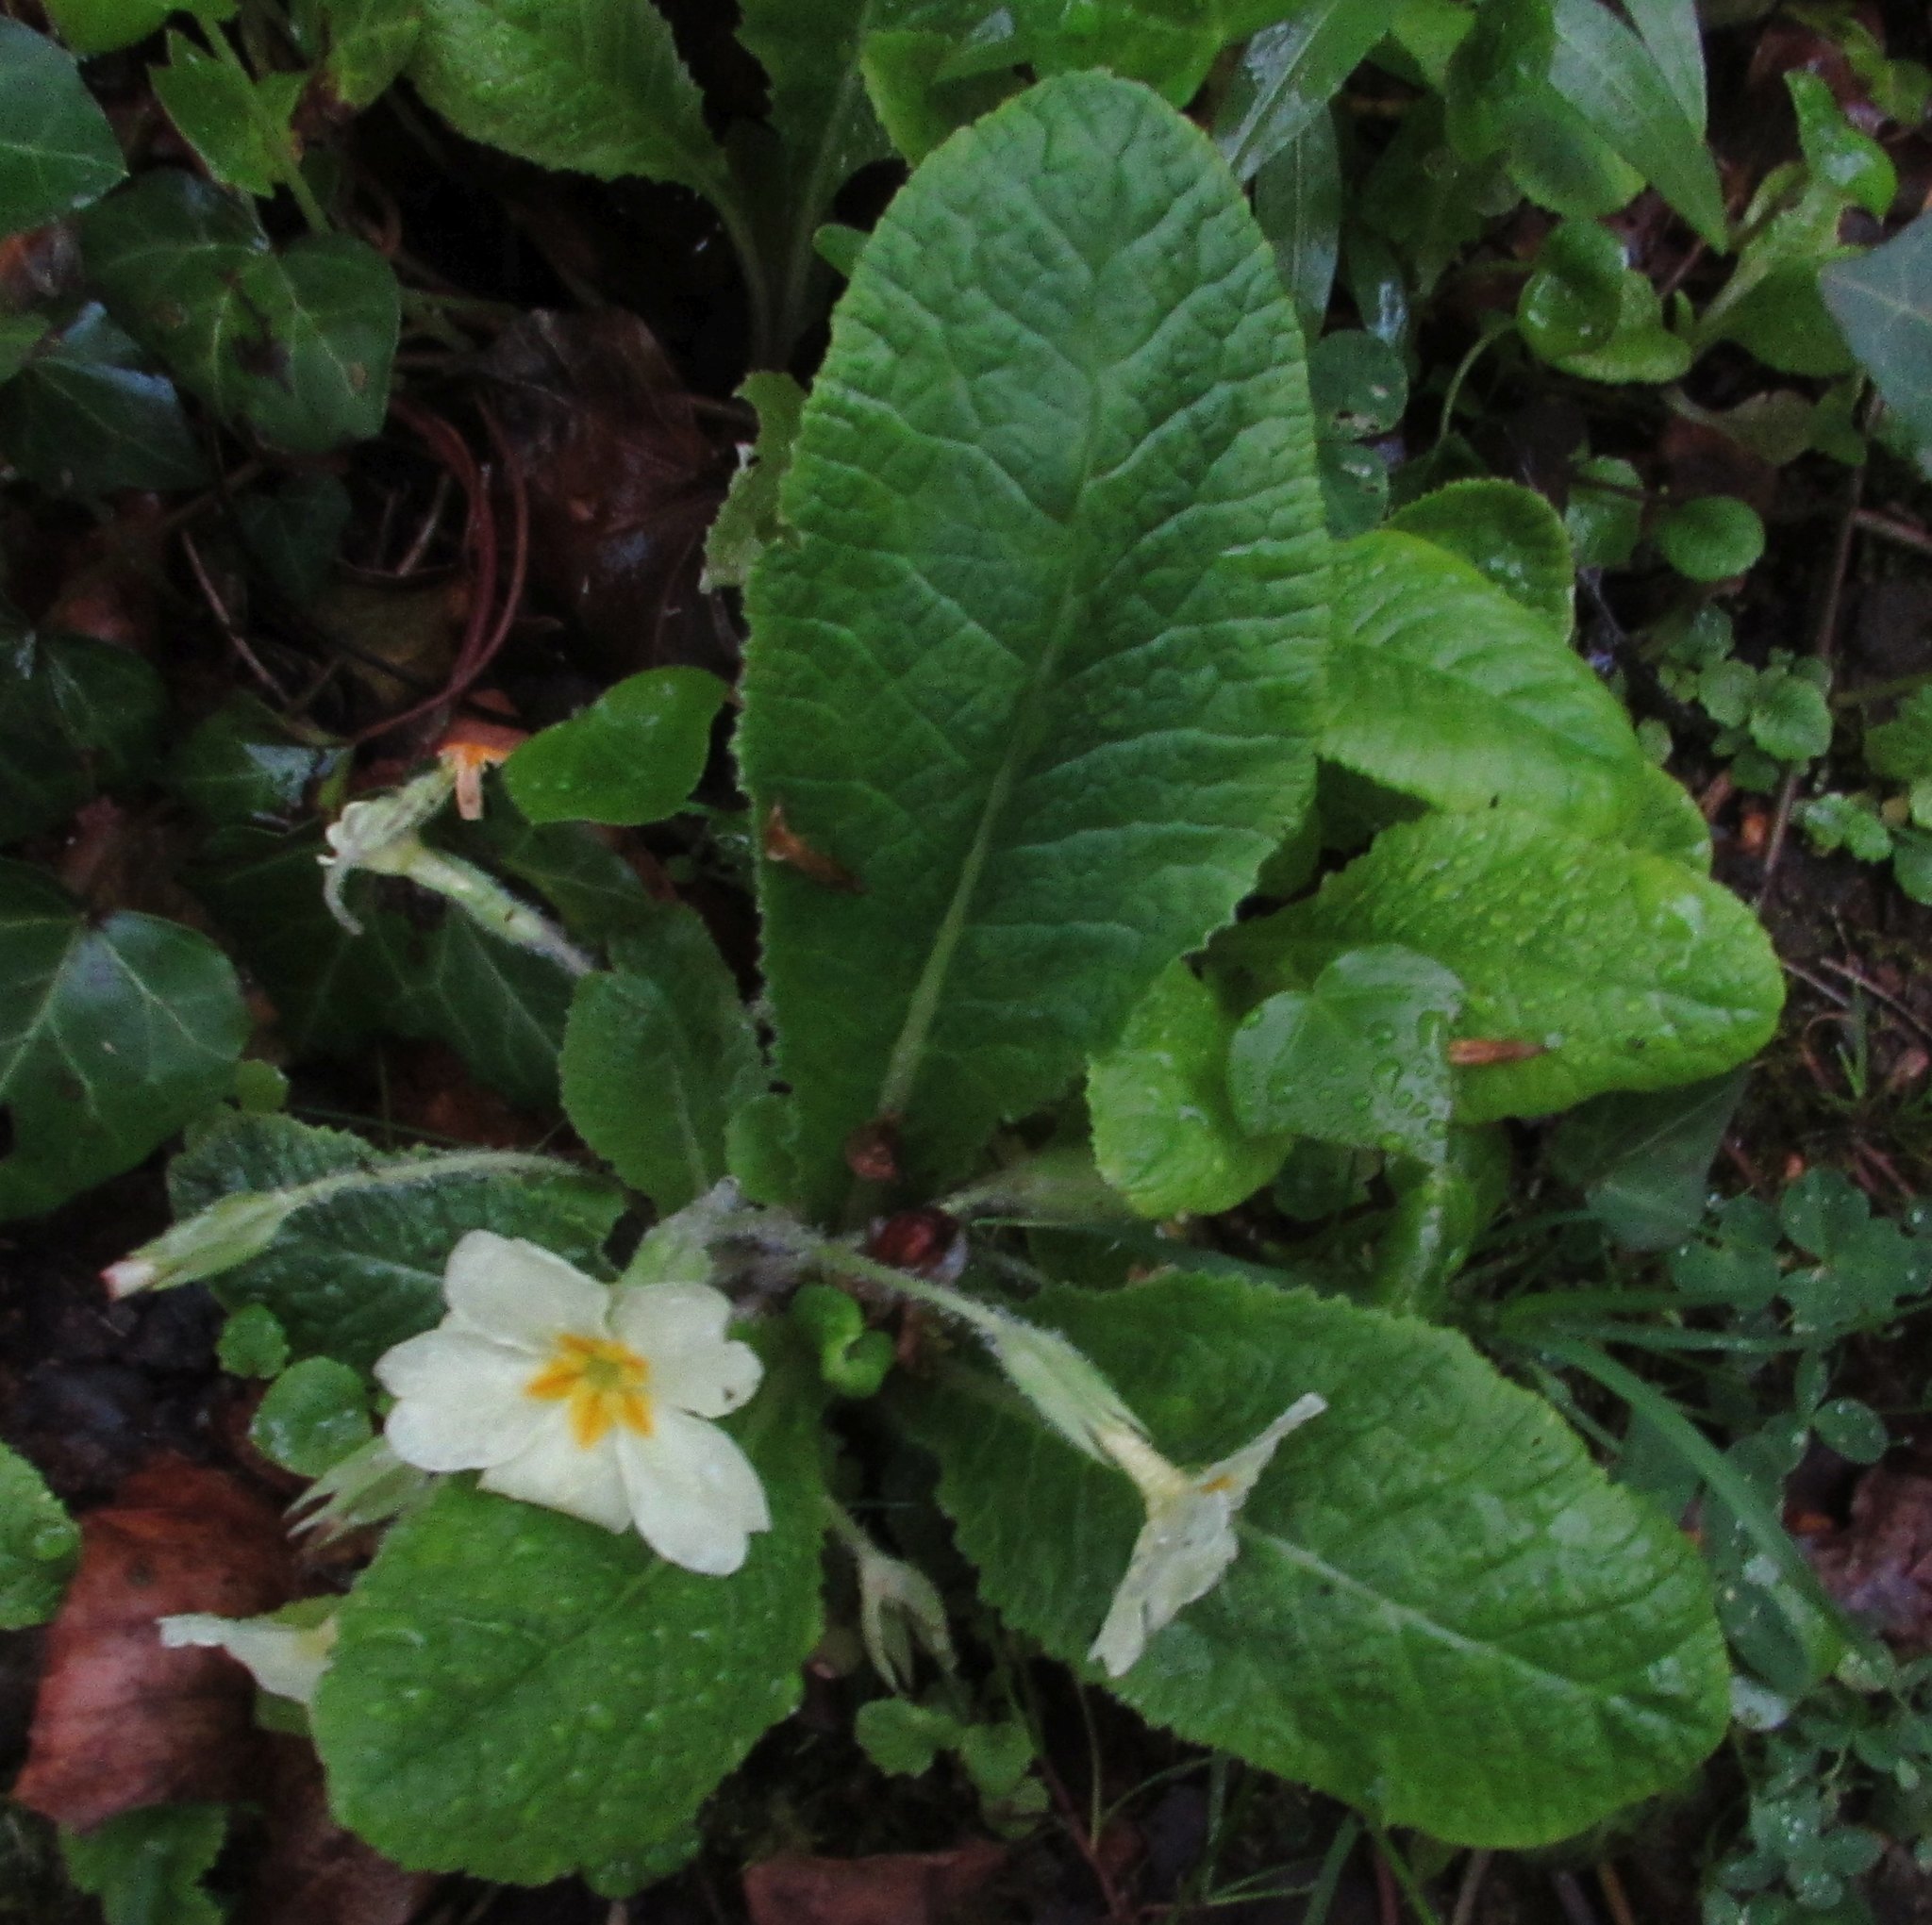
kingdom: Plantae
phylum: Tracheophyta
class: Magnoliopsida
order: Ericales
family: Primulaceae
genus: Primula
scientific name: Primula vulgaris
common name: Primrose
